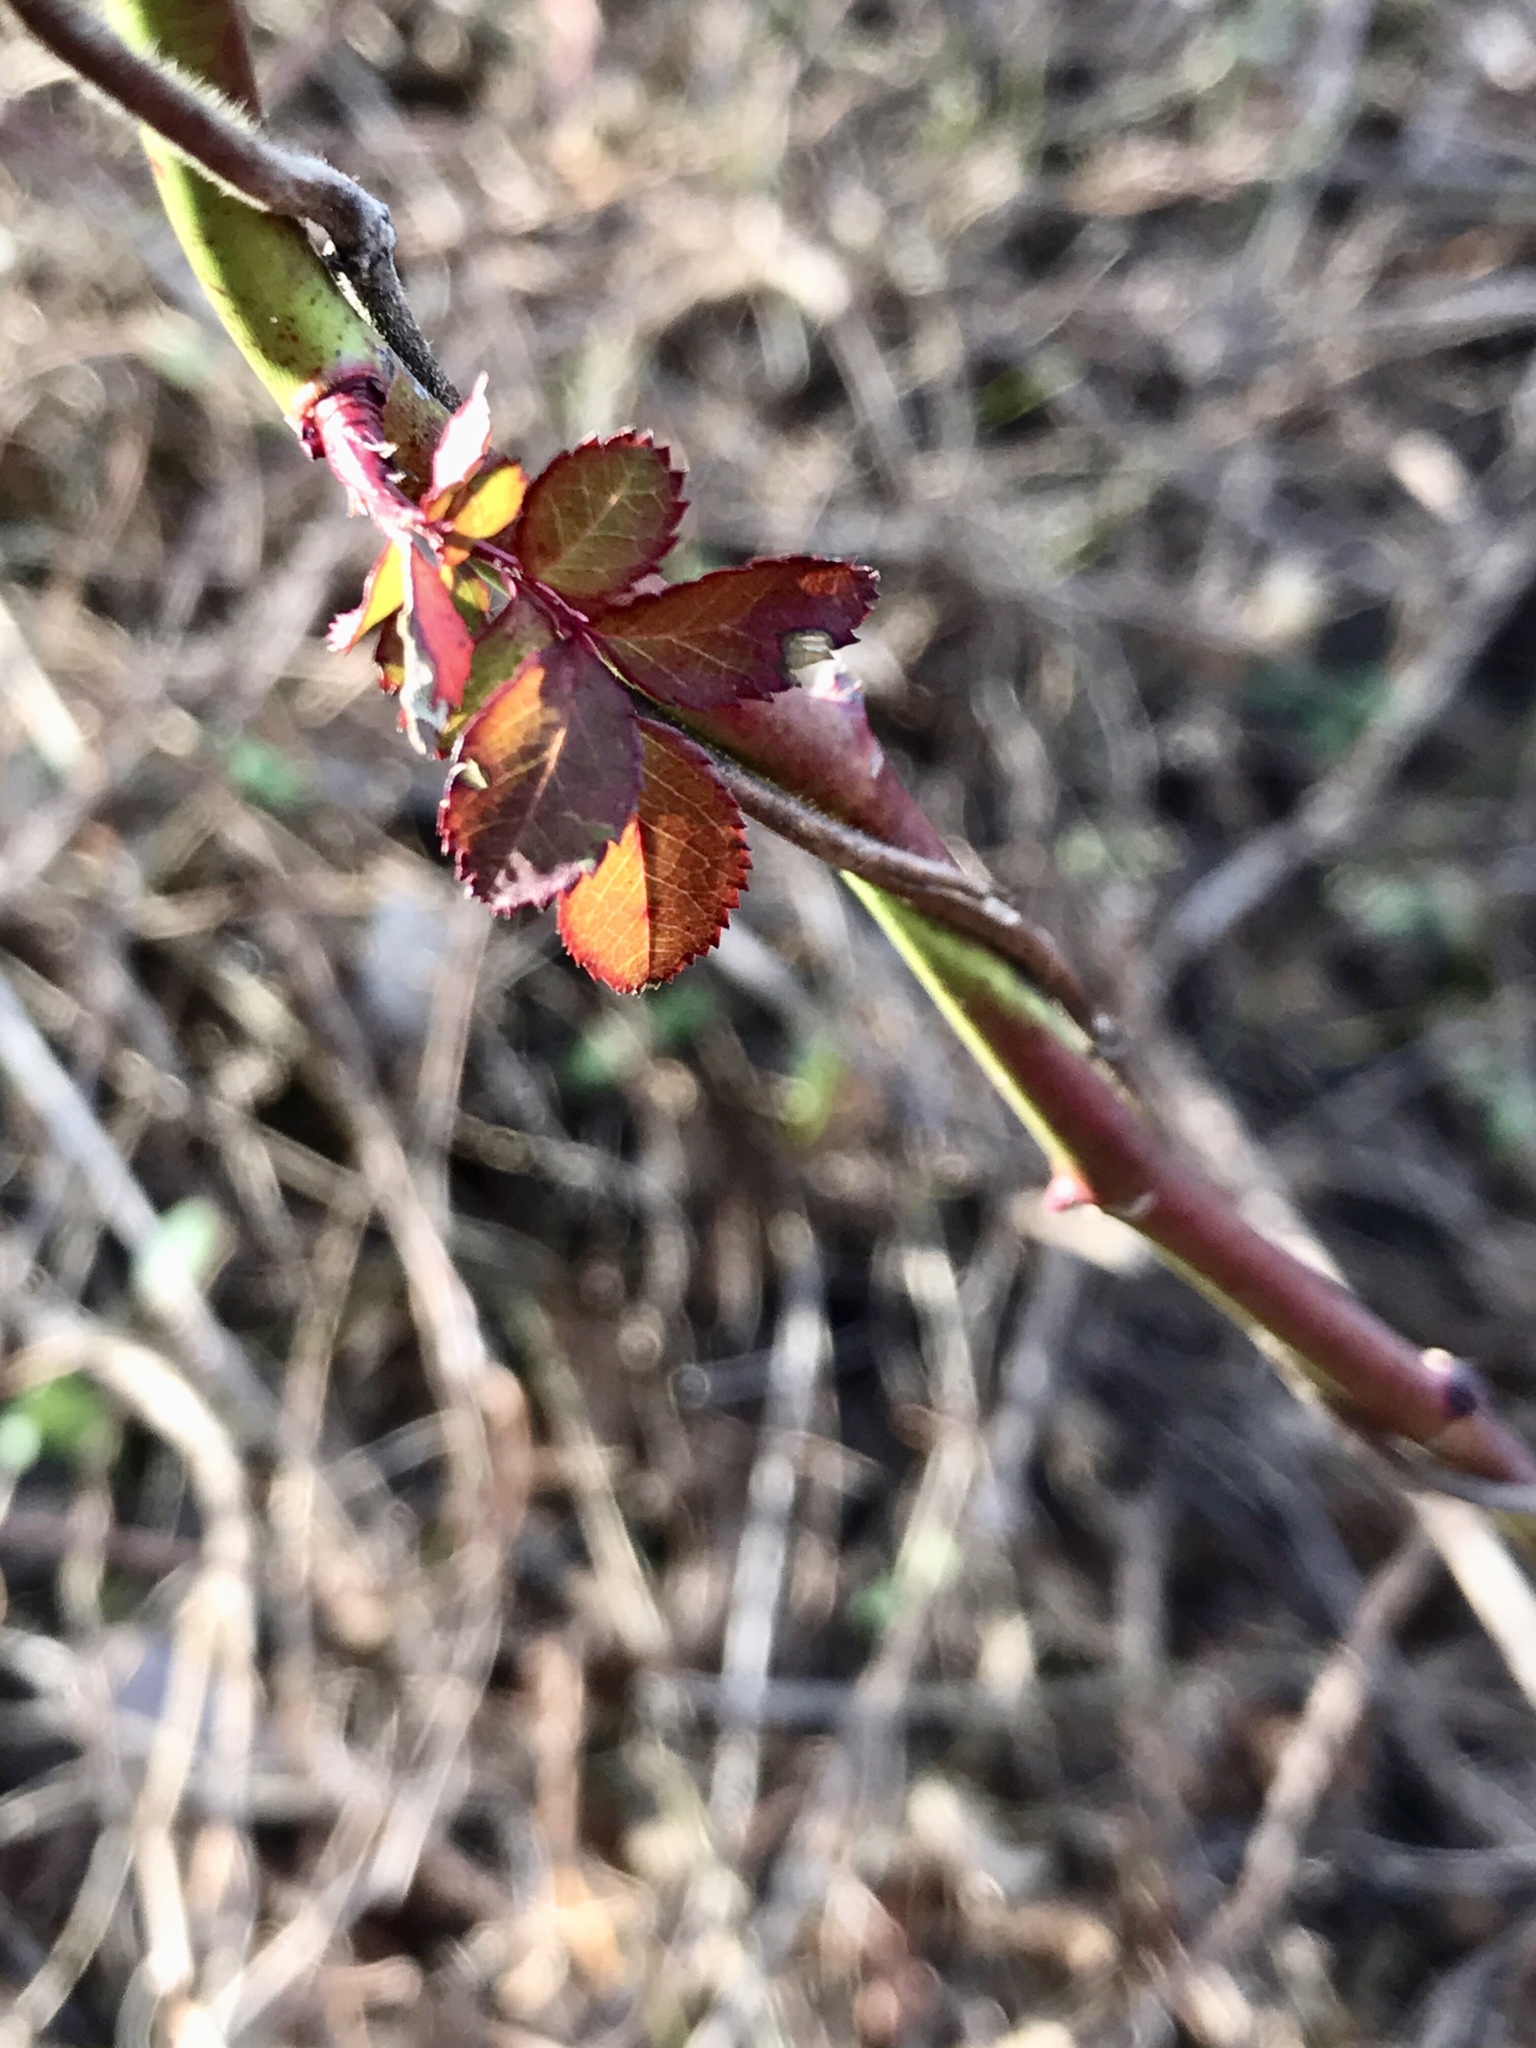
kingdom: Plantae
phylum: Tracheophyta
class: Magnoliopsida
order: Rosales
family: Rosaceae
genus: Rosa
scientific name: Rosa multiflora
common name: Multiflora rose
